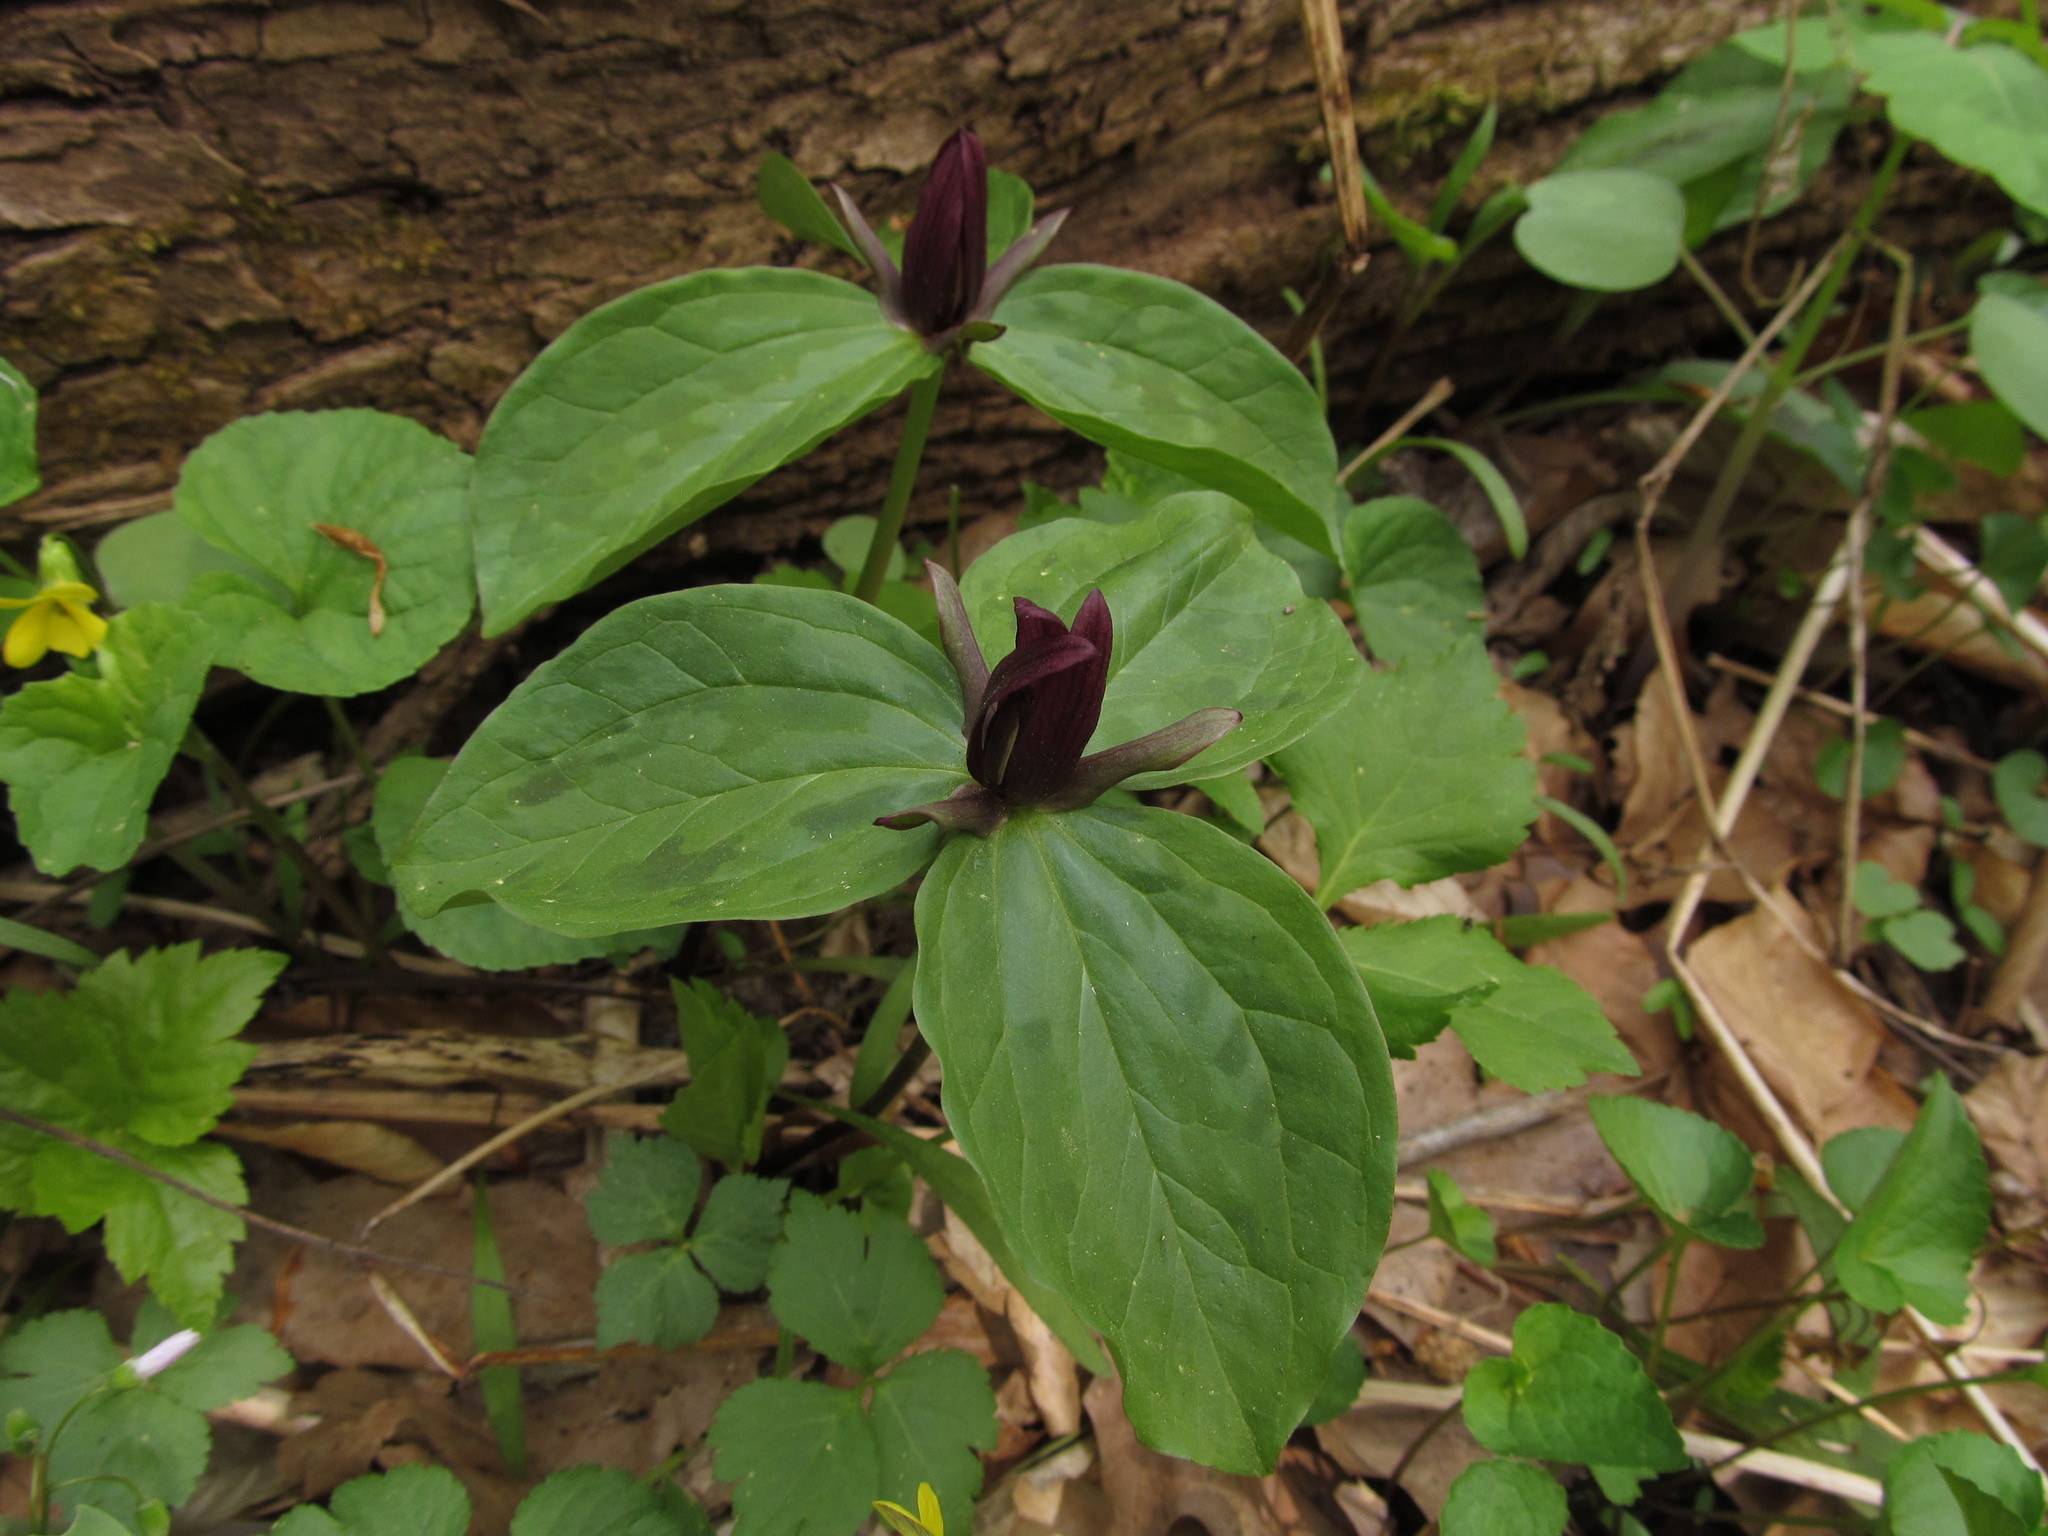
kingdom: Plantae
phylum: Tracheophyta
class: Liliopsida
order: Liliales
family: Melanthiaceae
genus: Trillium
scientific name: Trillium sessile
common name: Sessile trillium
